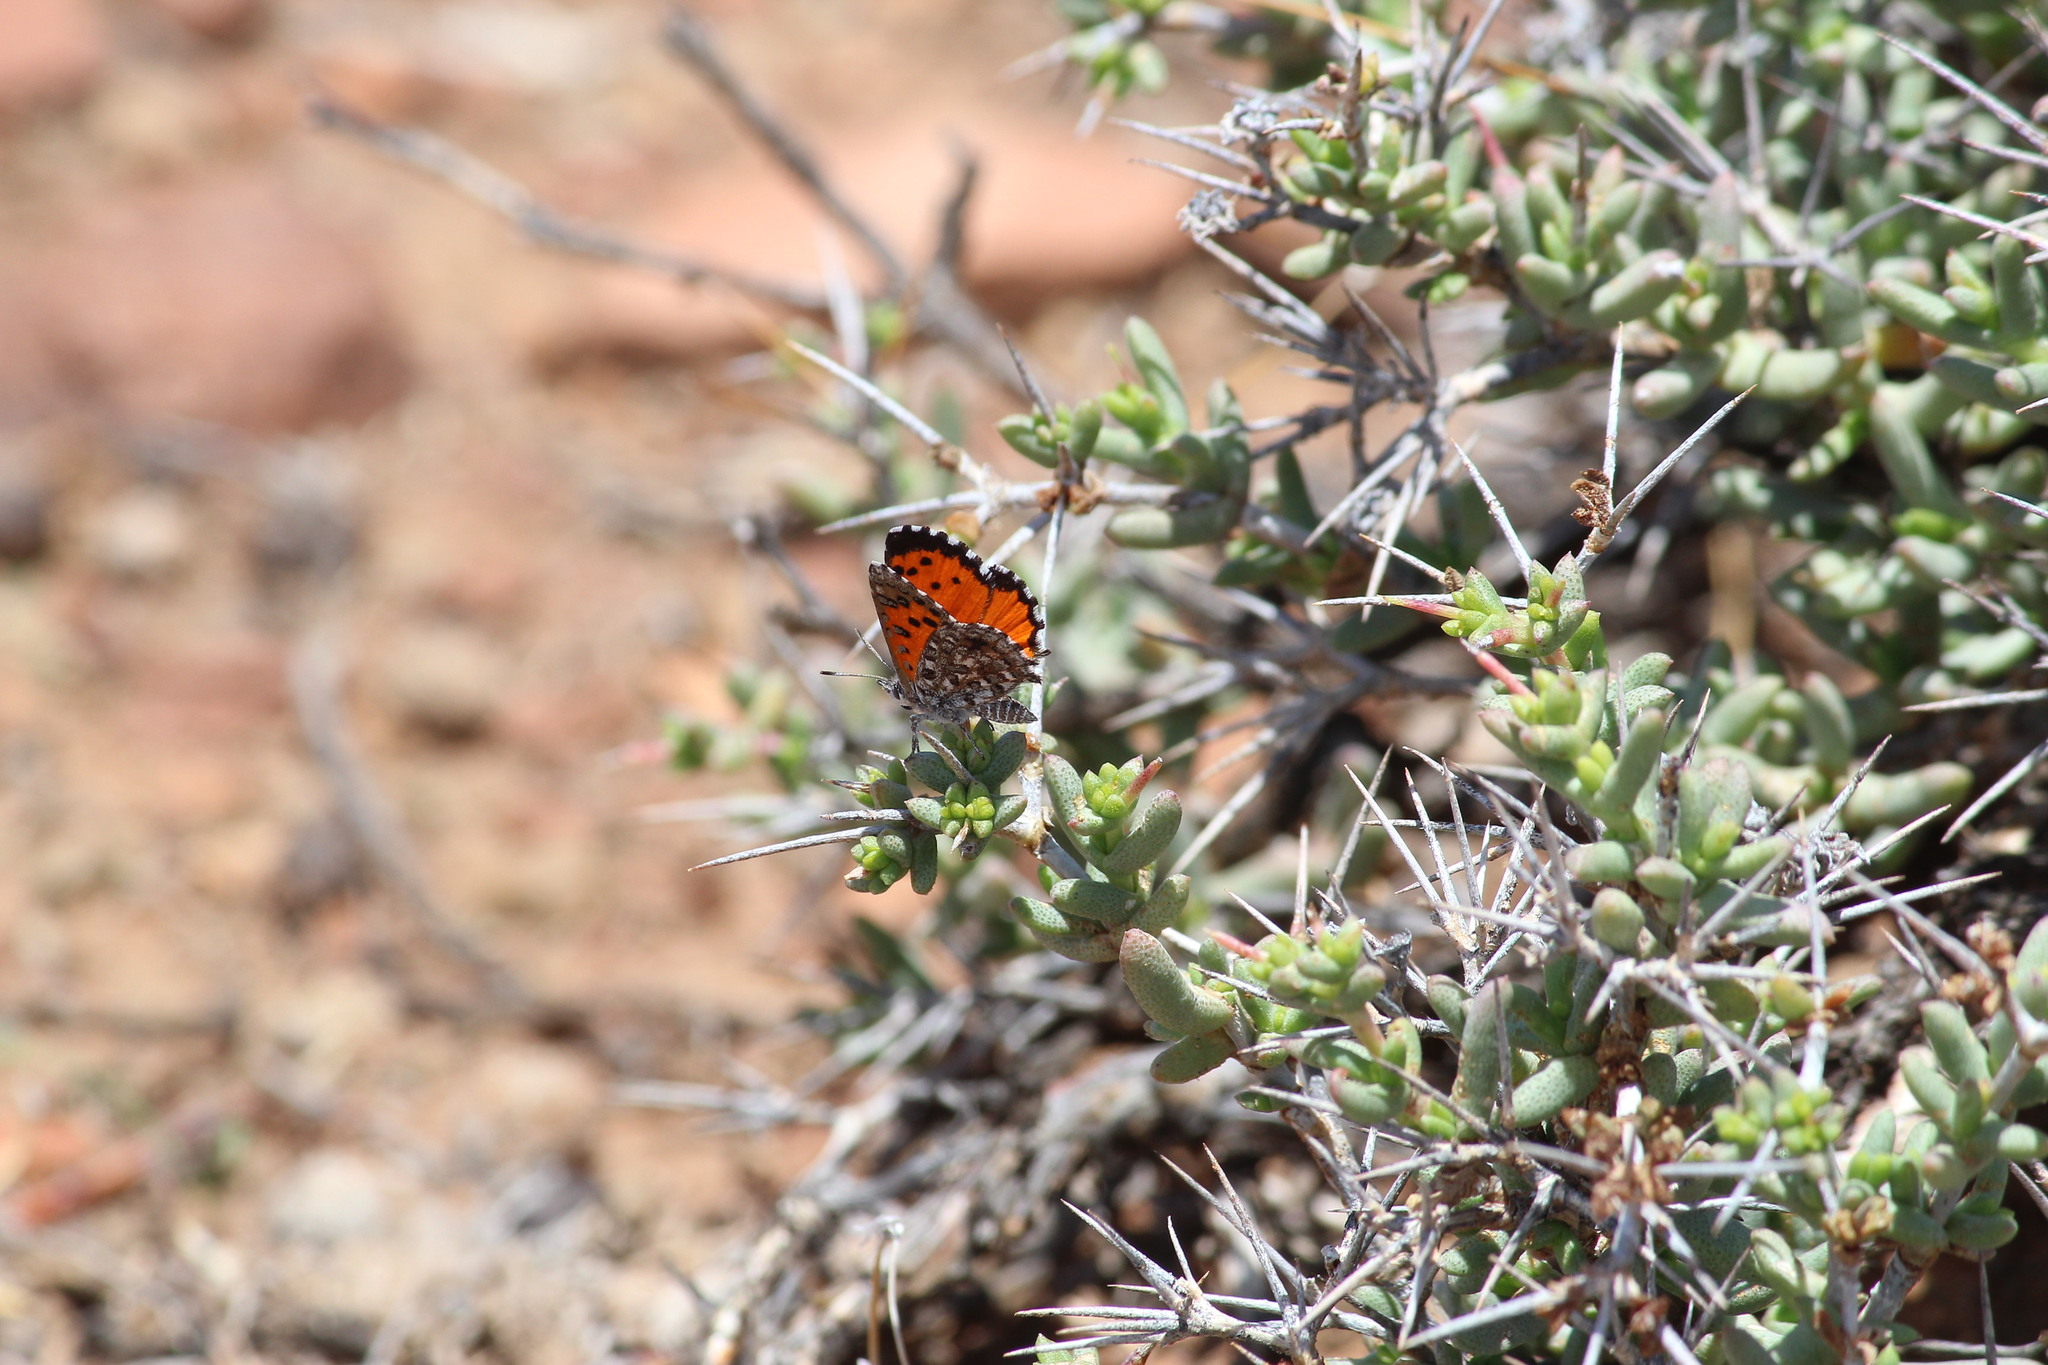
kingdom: Animalia
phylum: Arthropoda
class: Insecta
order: Lepidoptera
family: Lycaenidae
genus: Zeritis
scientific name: Zeritis chrysantas
